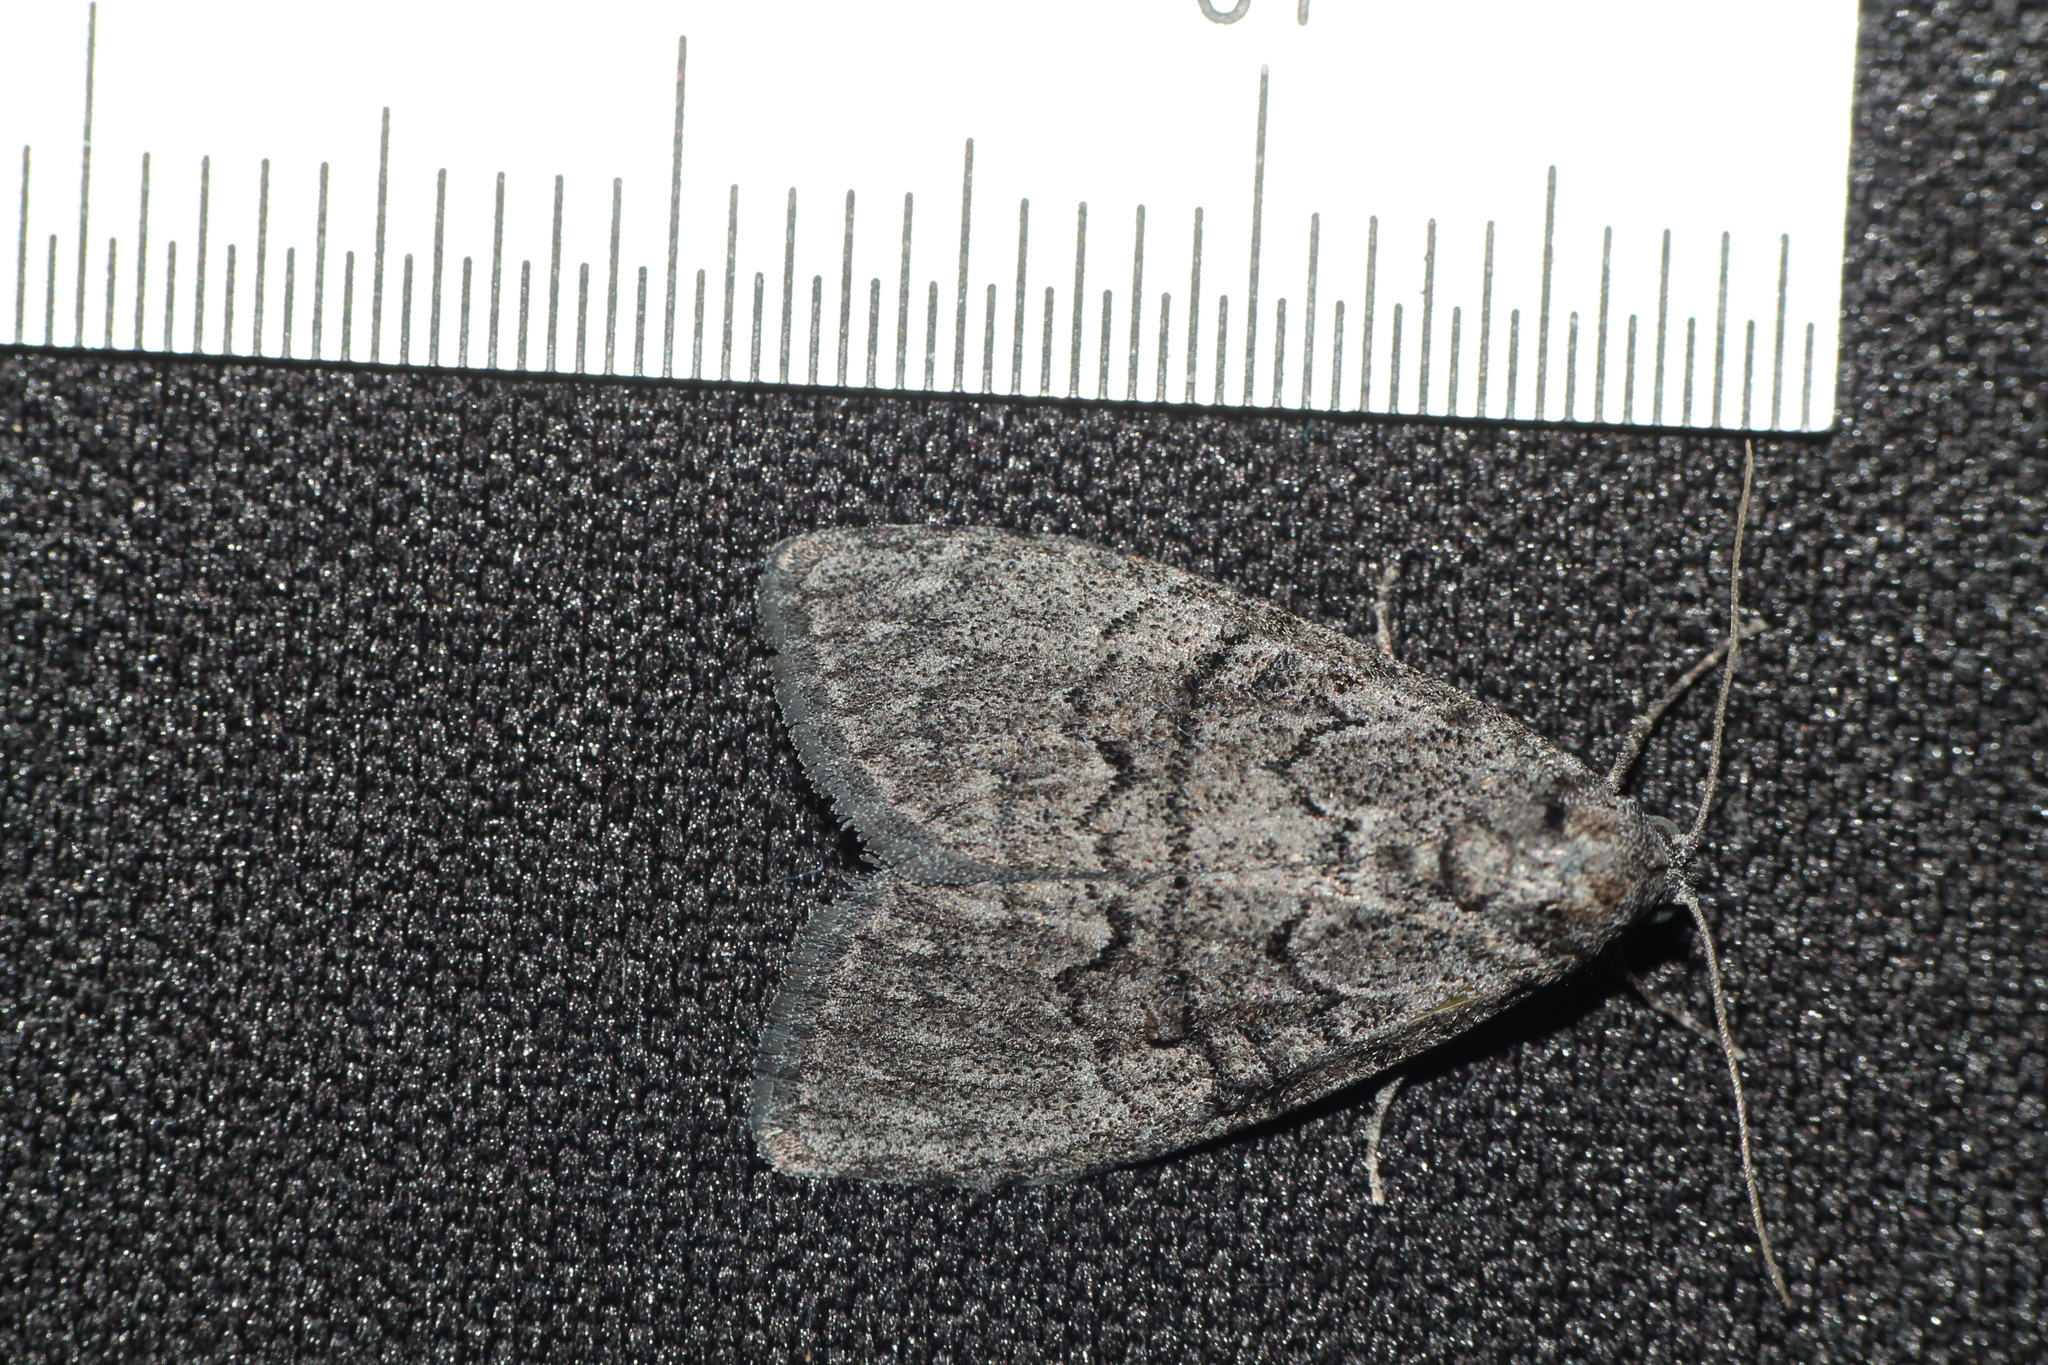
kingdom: Animalia
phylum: Arthropoda
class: Insecta
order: Lepidoptera
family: Nolidae
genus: Uraba
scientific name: Uraba lugens
